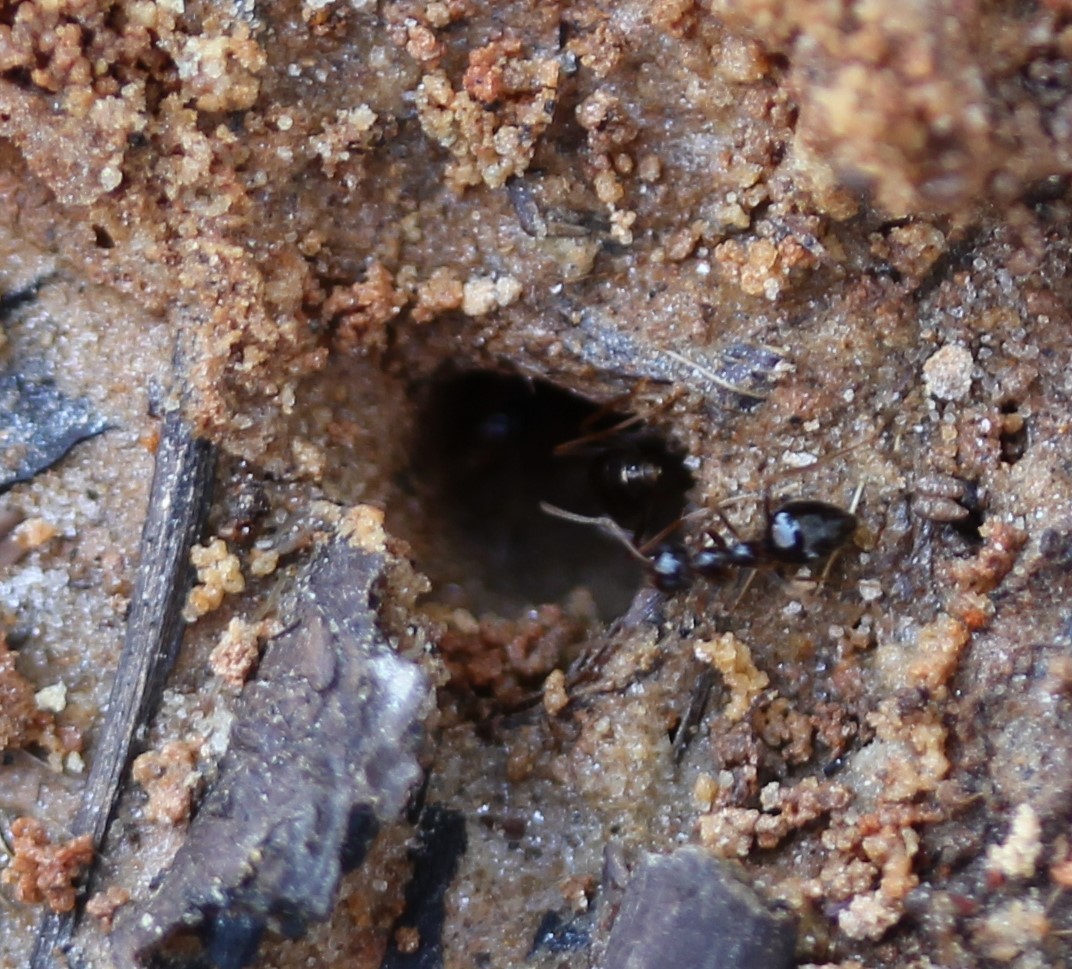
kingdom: Animalia
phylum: Arthropoda
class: Insecta
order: Hymenoptera
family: Formicidae
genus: Prenolepis
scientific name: Prenolepis imparis
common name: Small honey ant
